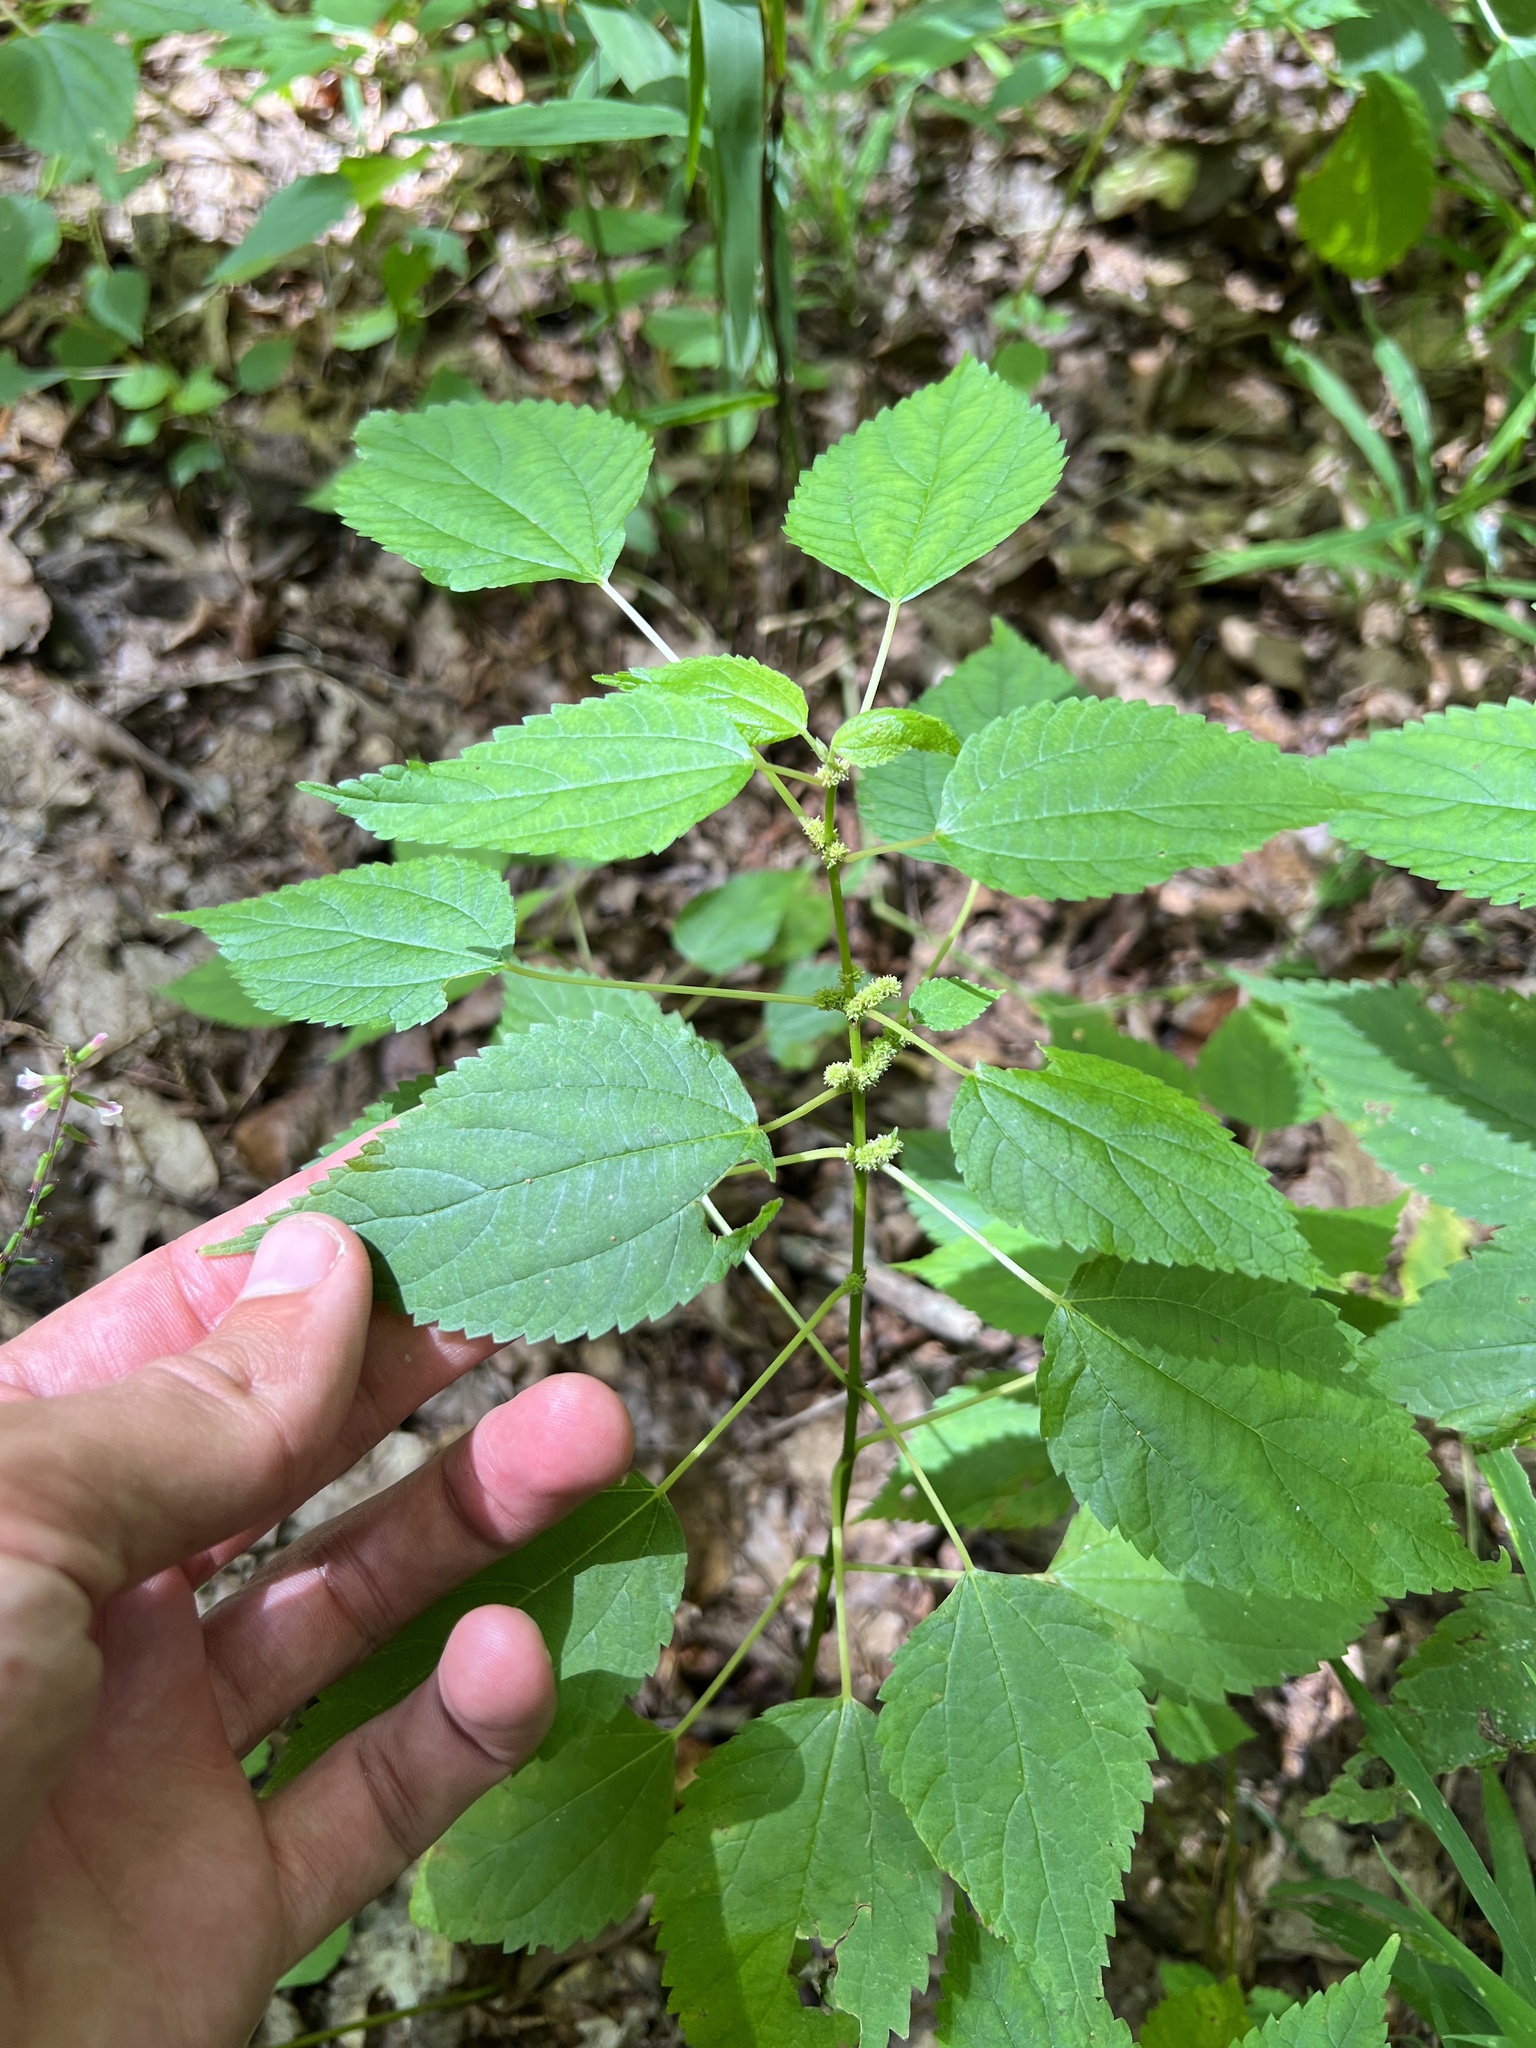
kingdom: Plantae
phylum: Tracheophyta
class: Magnoliopsida
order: Rosales
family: Urticaceae
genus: Boehmeria
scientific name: Boehmeria cylindrica
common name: Bog-hemp
